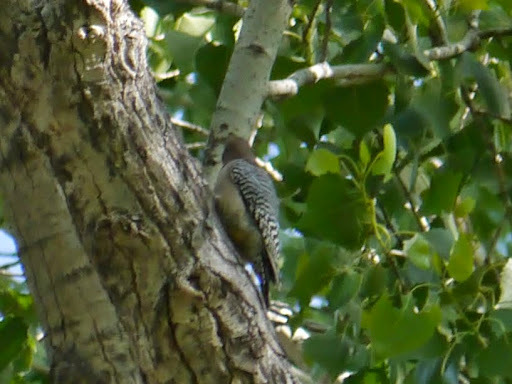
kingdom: Animalia
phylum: Chordata
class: Aves
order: Piciformes
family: Picidae
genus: Melanerpes
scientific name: Melanerpes uropygialis
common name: Gila woodpecker
